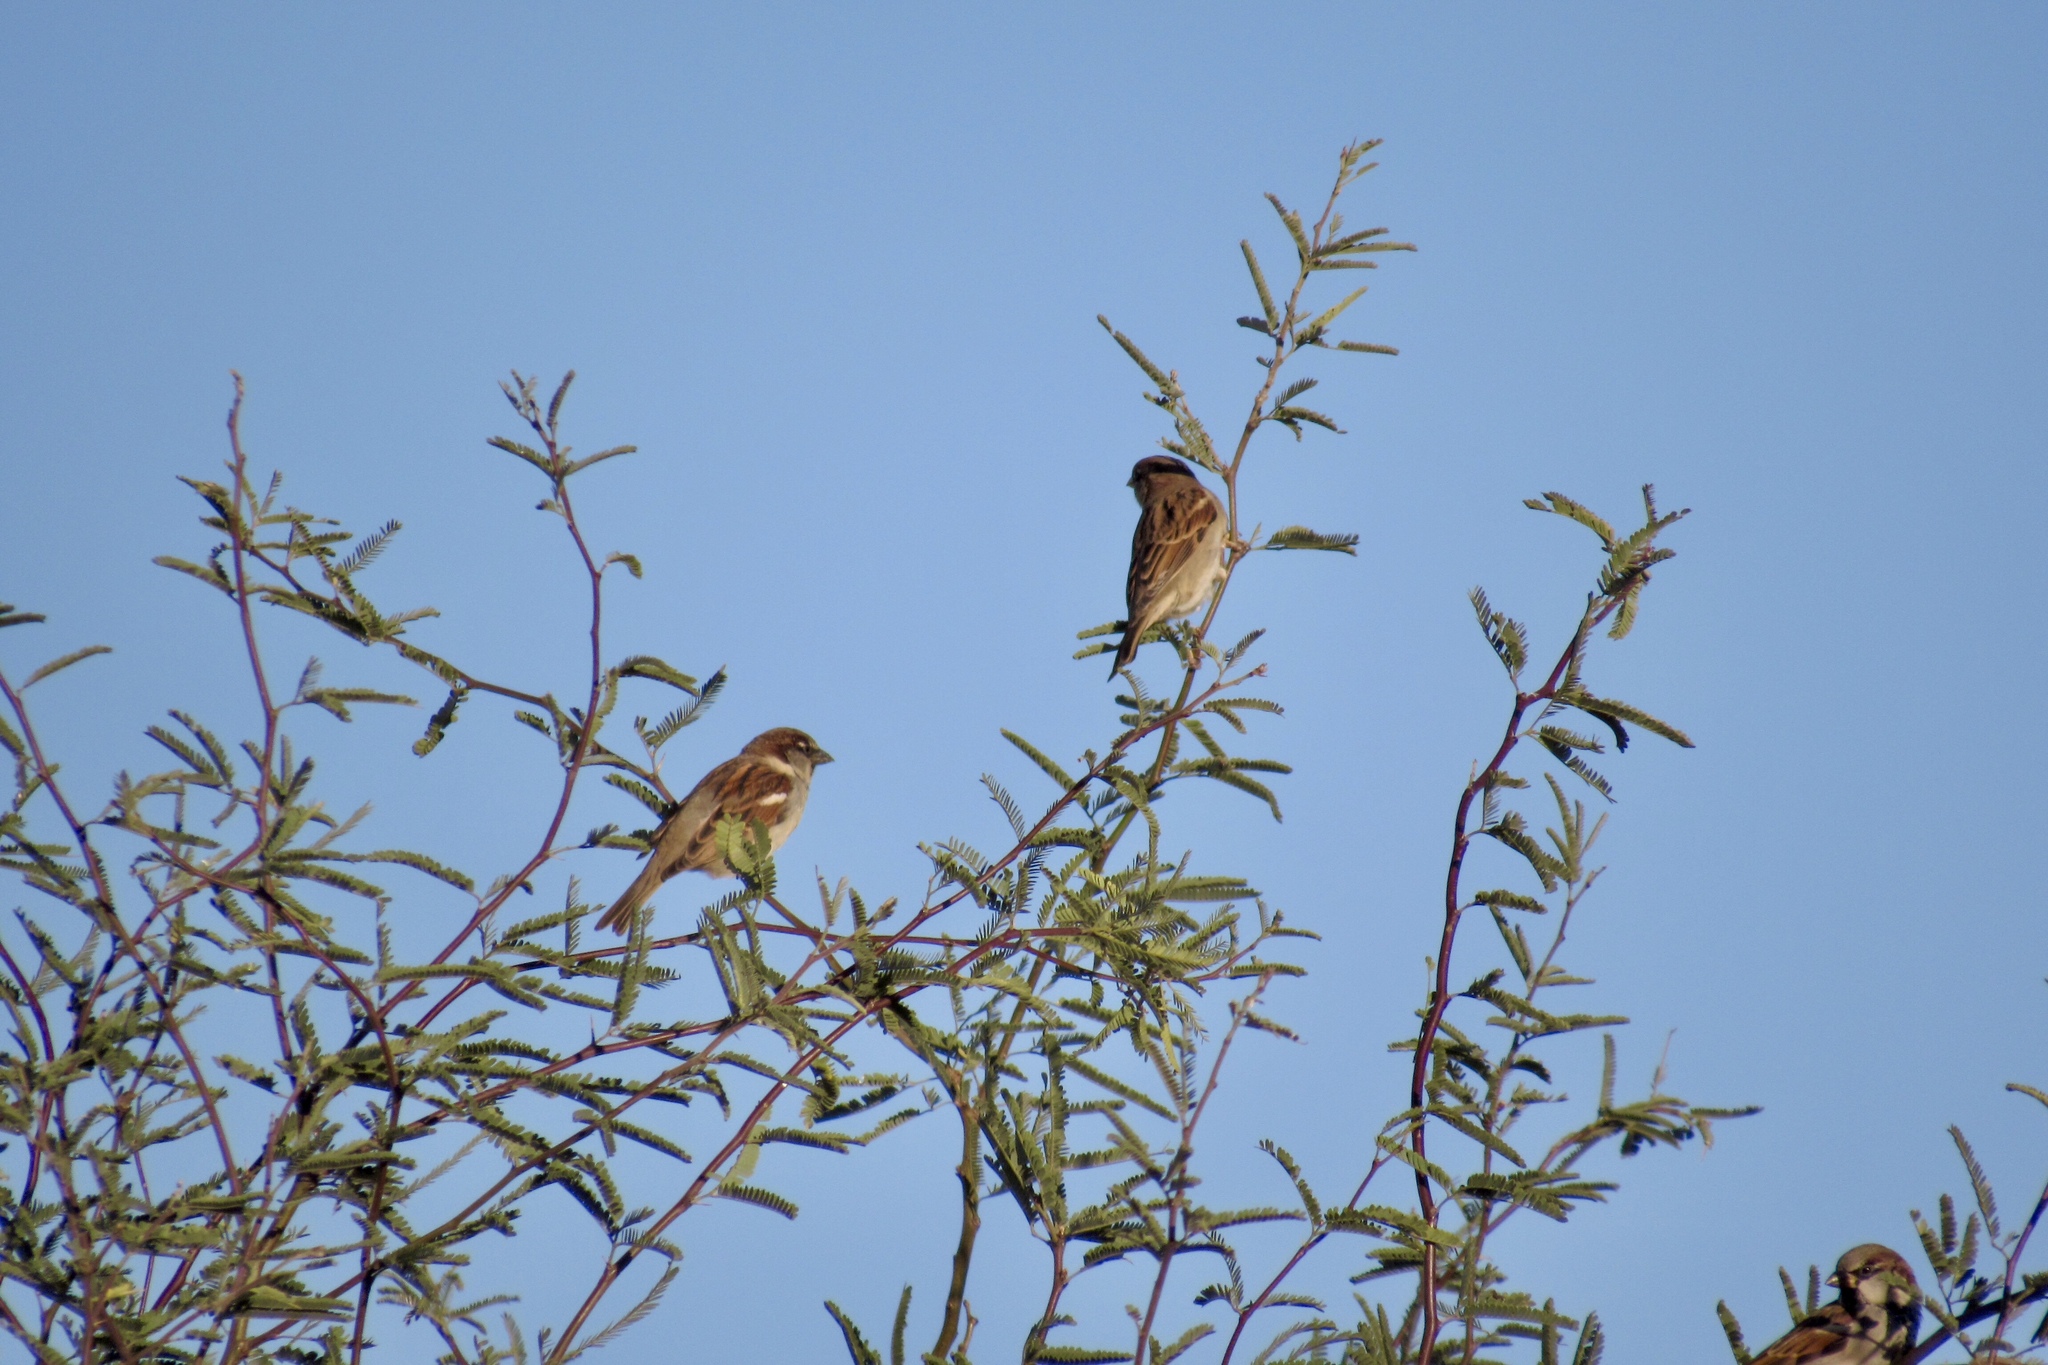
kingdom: Animalia
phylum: Chordata
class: Aves
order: Passeriformes
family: Passeridae
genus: Passer
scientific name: Passer domesticus
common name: House sparrow
